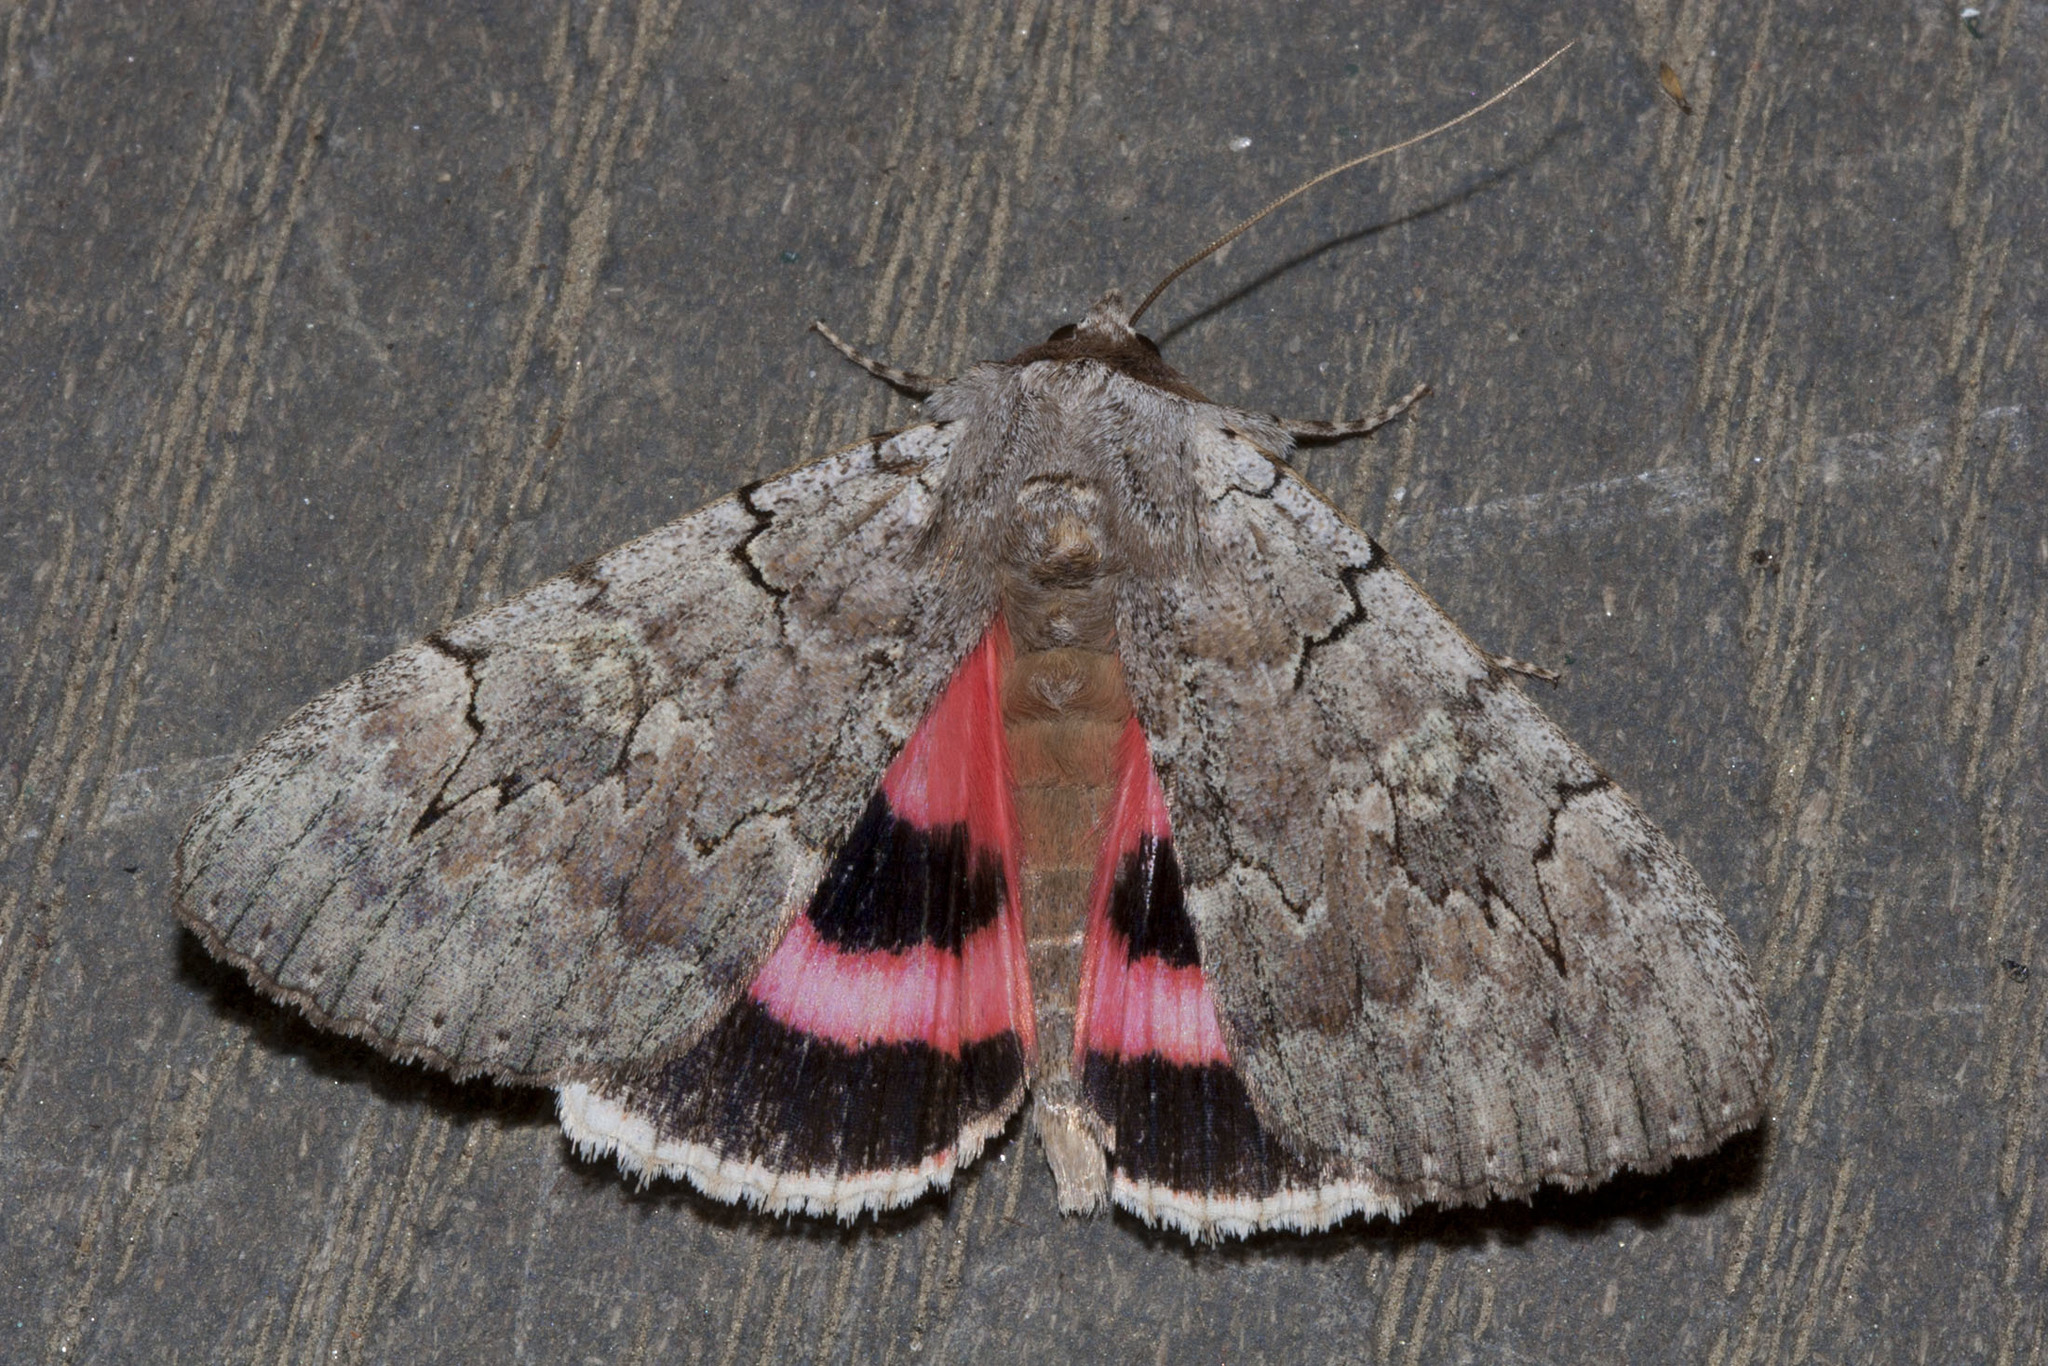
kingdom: Animalia
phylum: Arthropoda
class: Insecta
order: Lepidoptera
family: Erebidae
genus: Catocala
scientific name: Catocala concumbens
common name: Pink underwing
